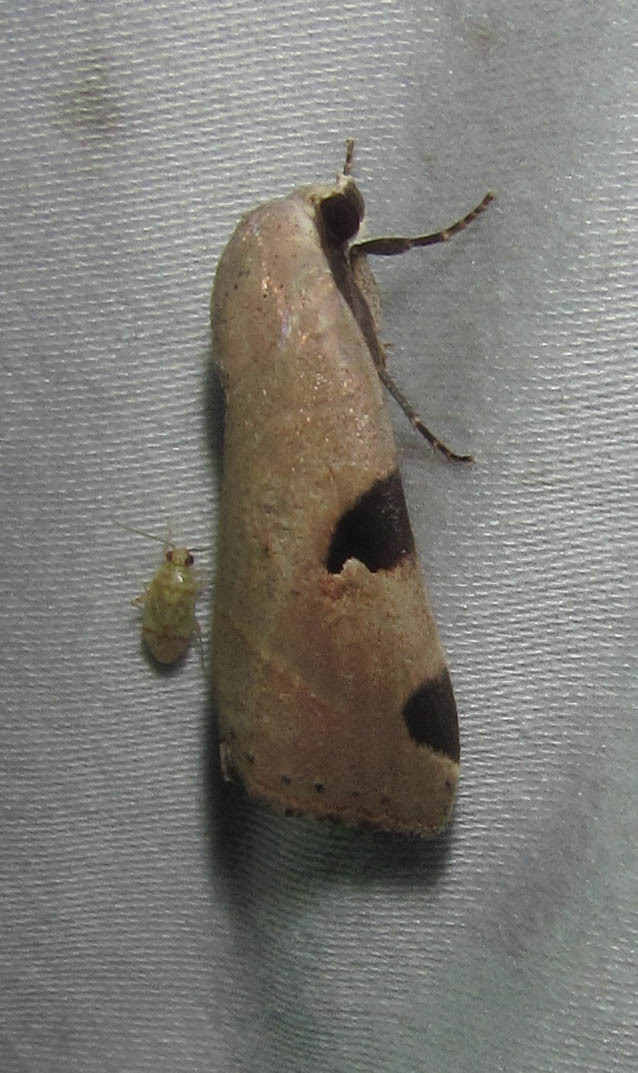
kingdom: Animalia
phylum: Arthropoda
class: Insecta
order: Lepidoptera
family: Noctuidae
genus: Honeyia
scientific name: Honeyia clearchus
